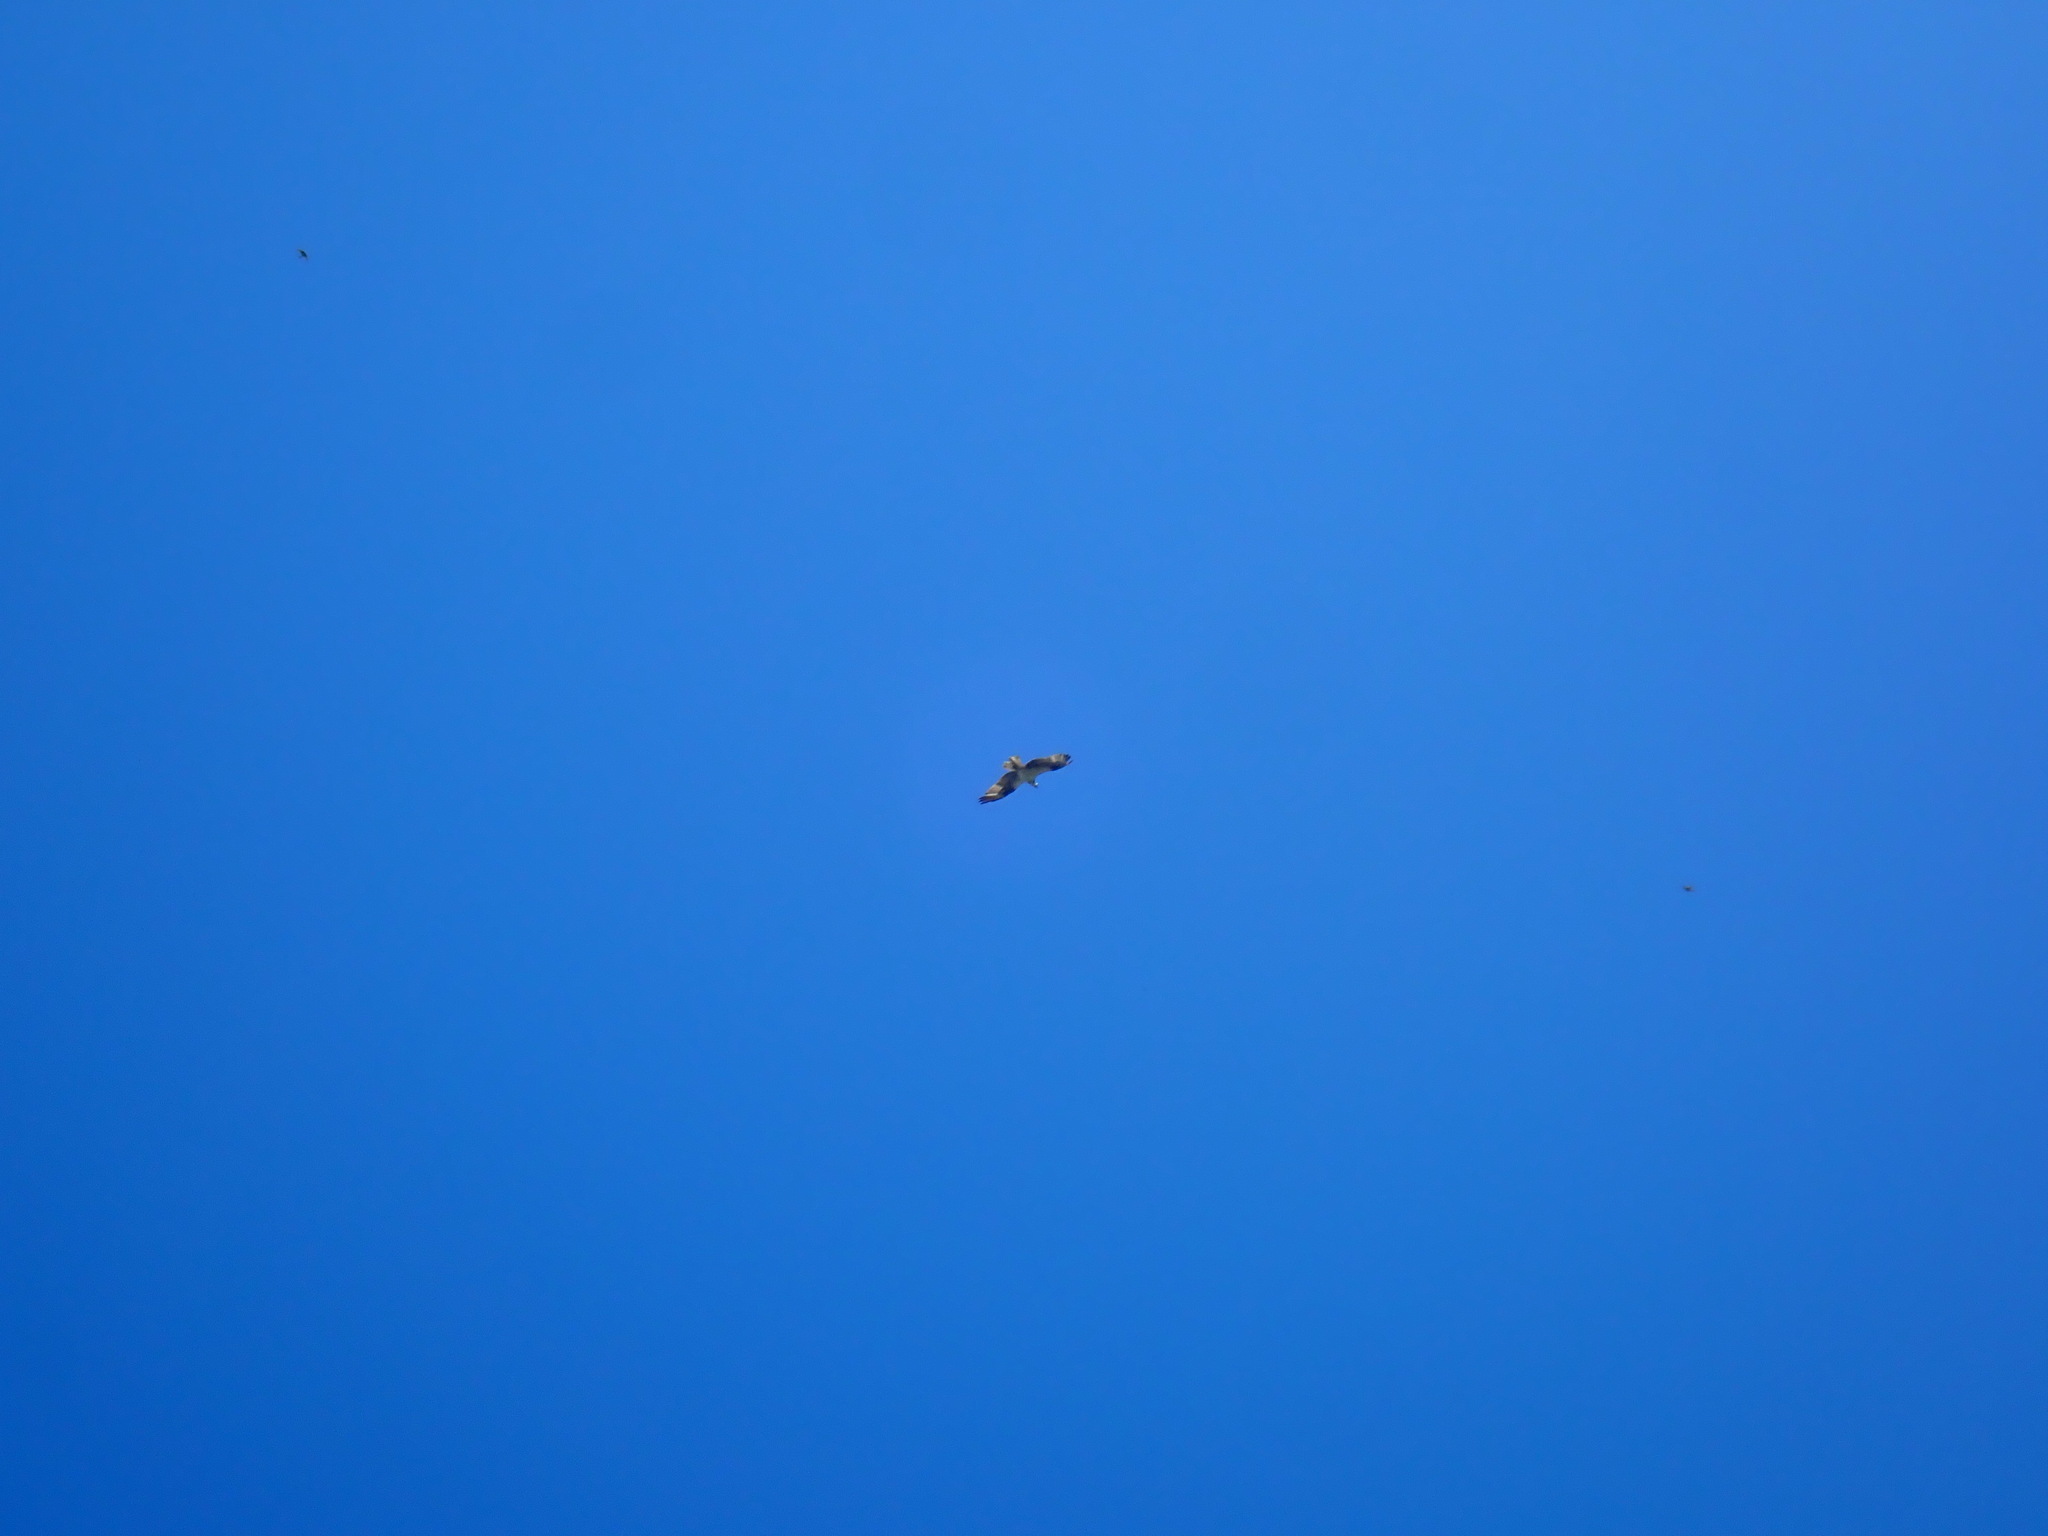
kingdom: Animalia
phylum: Chordata
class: Aves
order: Accipitriformes
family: Pandionidae
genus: Pandion
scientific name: Pandion haliaetus
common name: Osprey
